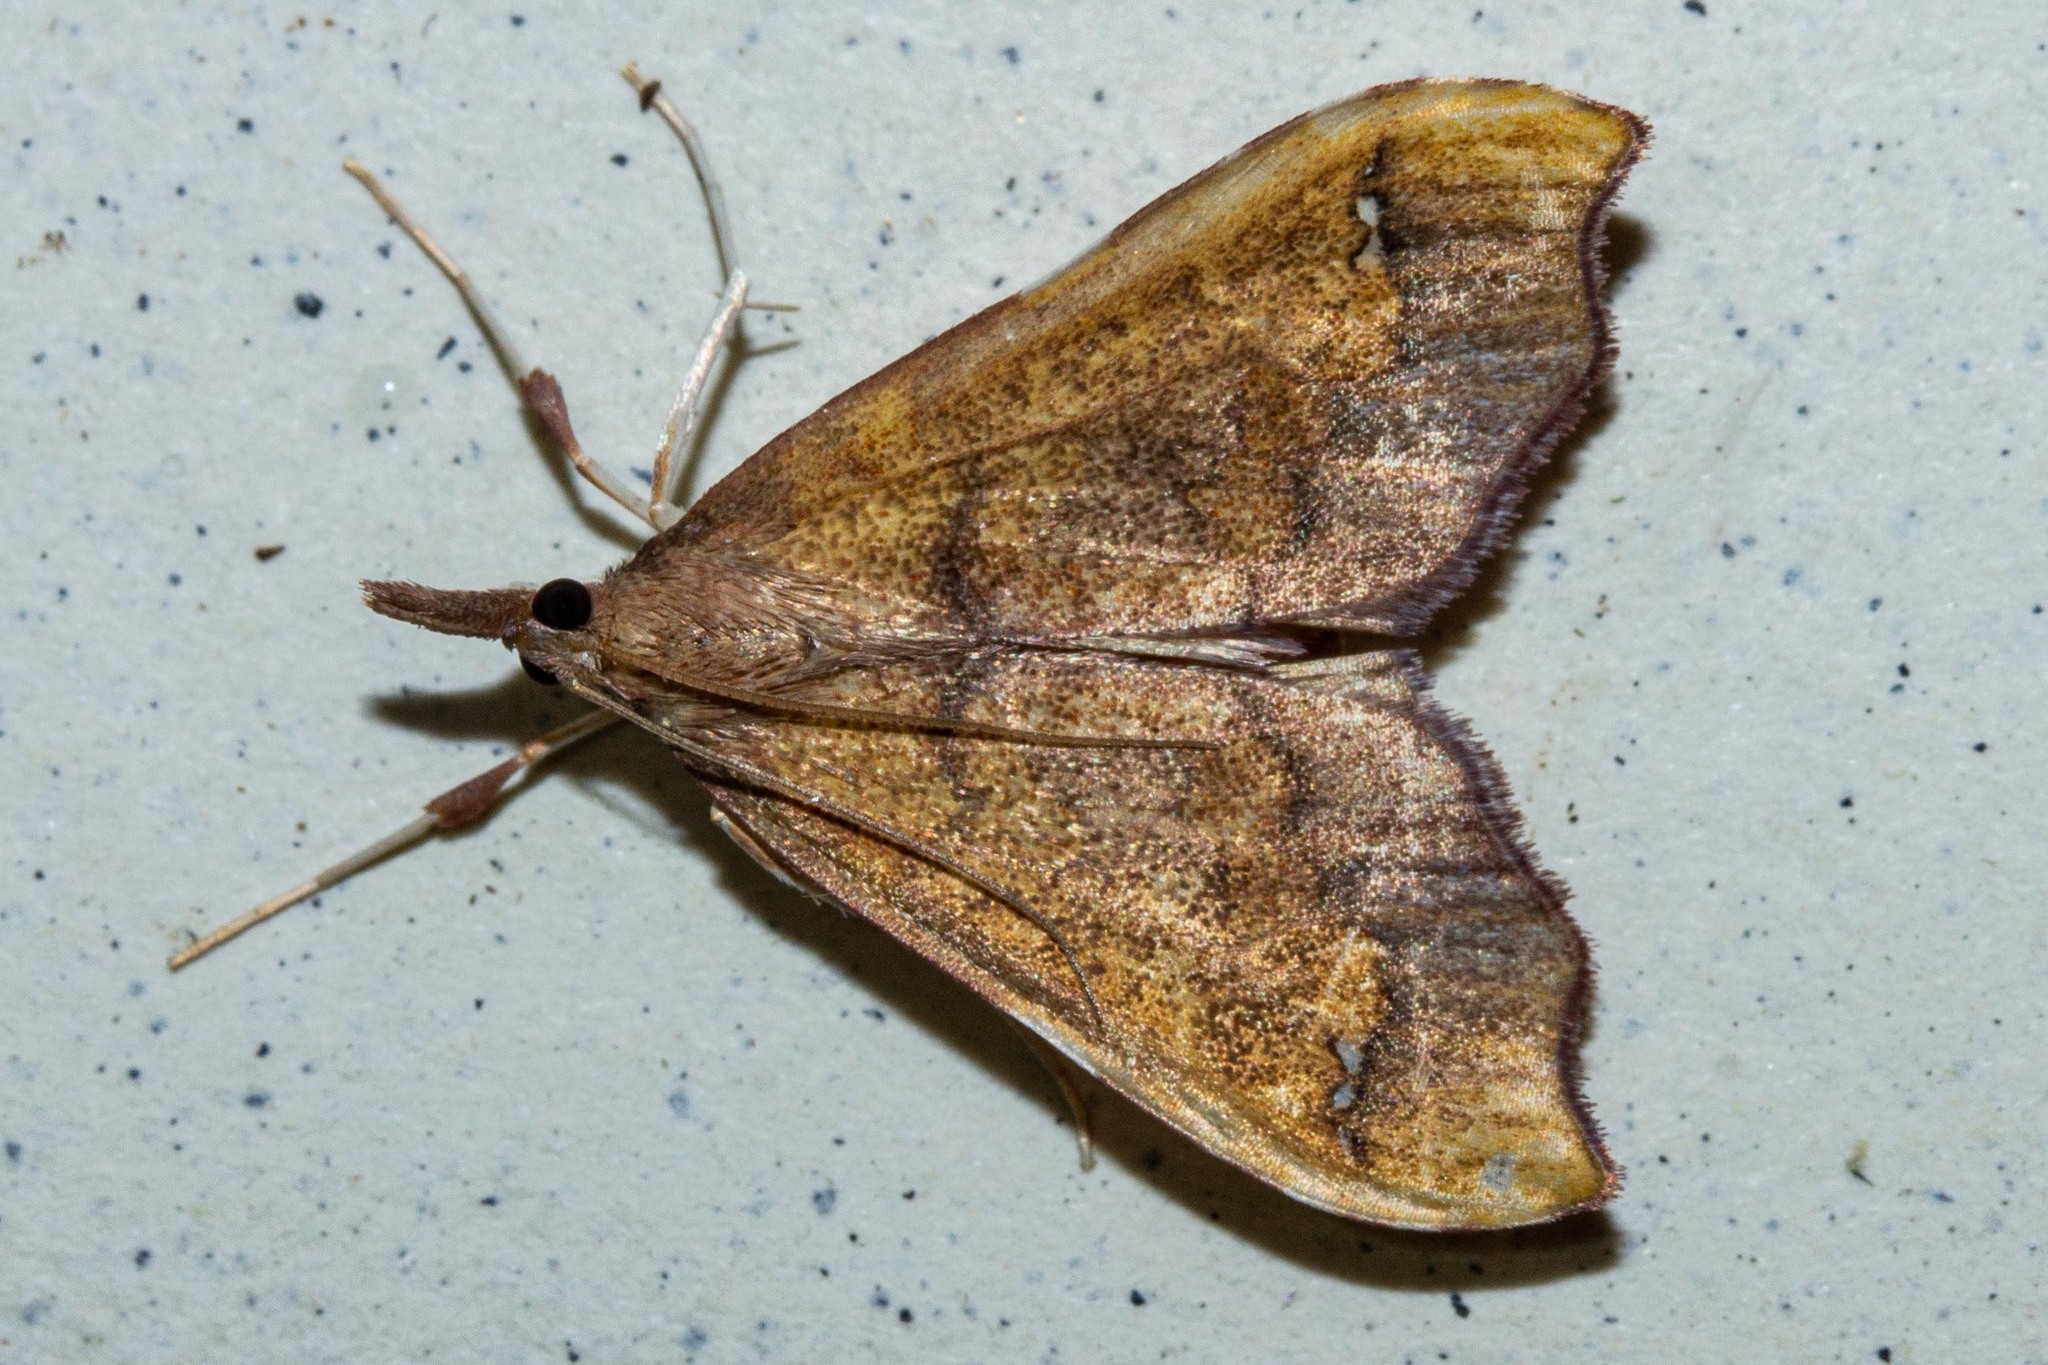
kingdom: Animalia
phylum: Arthropoda
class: Insecta
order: Lepidoptera
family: Crambidae
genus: Deana
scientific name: Deana hybreasalis
